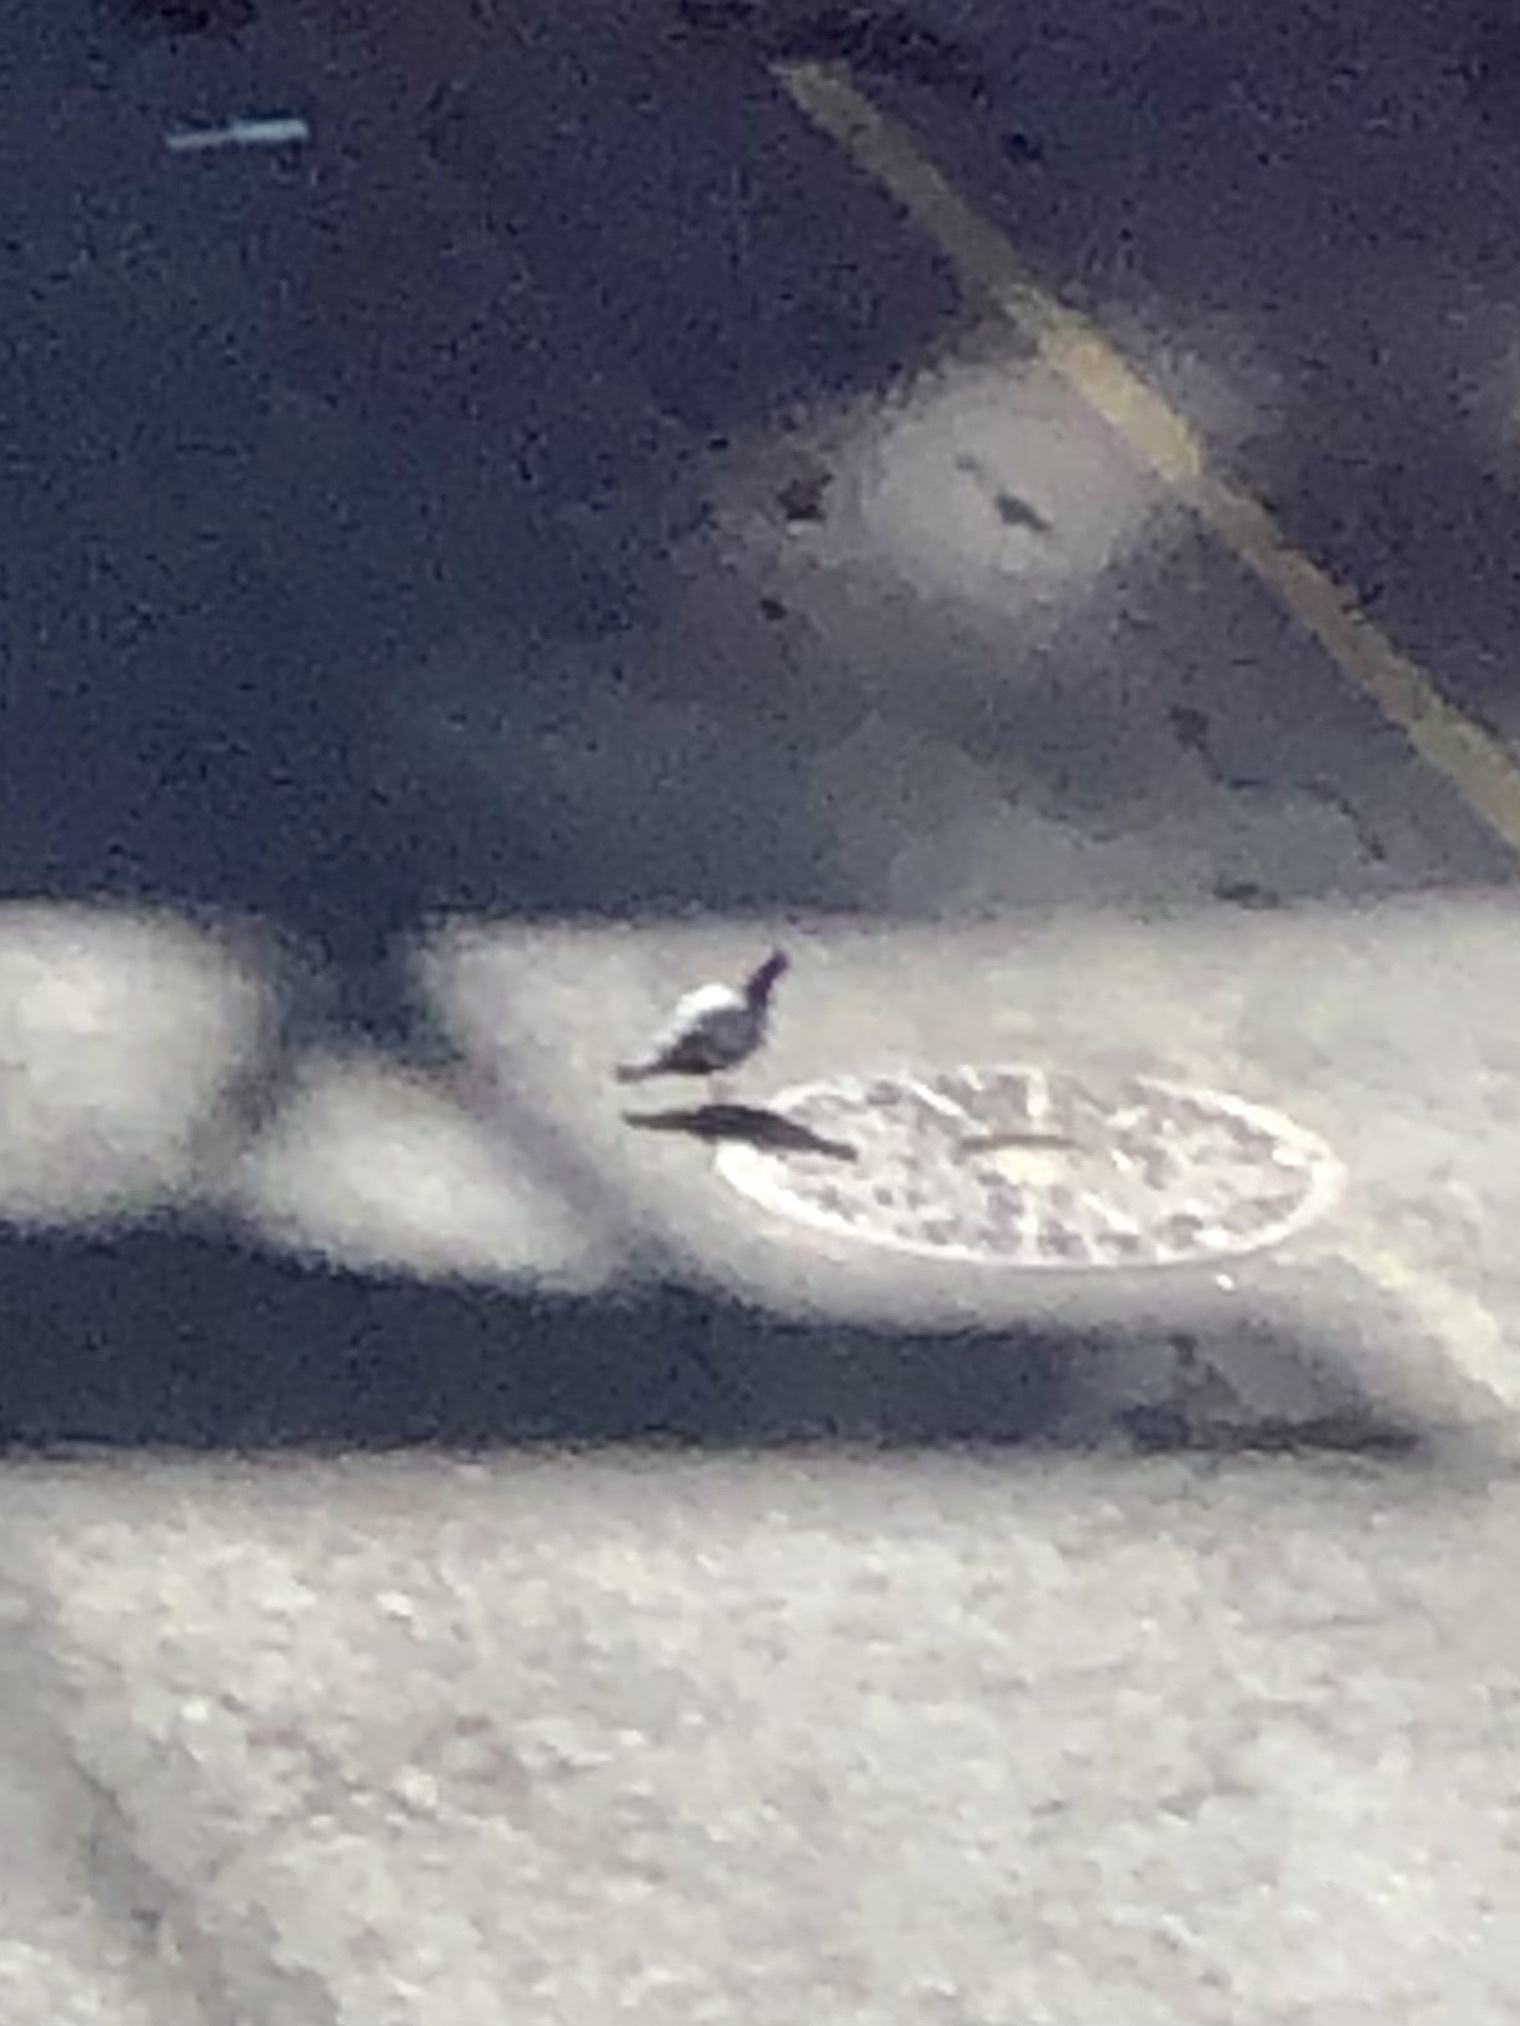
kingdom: Animalia
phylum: Chordata
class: Aves
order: Columbiformes
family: Columbidae
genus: Columba
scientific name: Columba livia
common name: Rock pigeon
